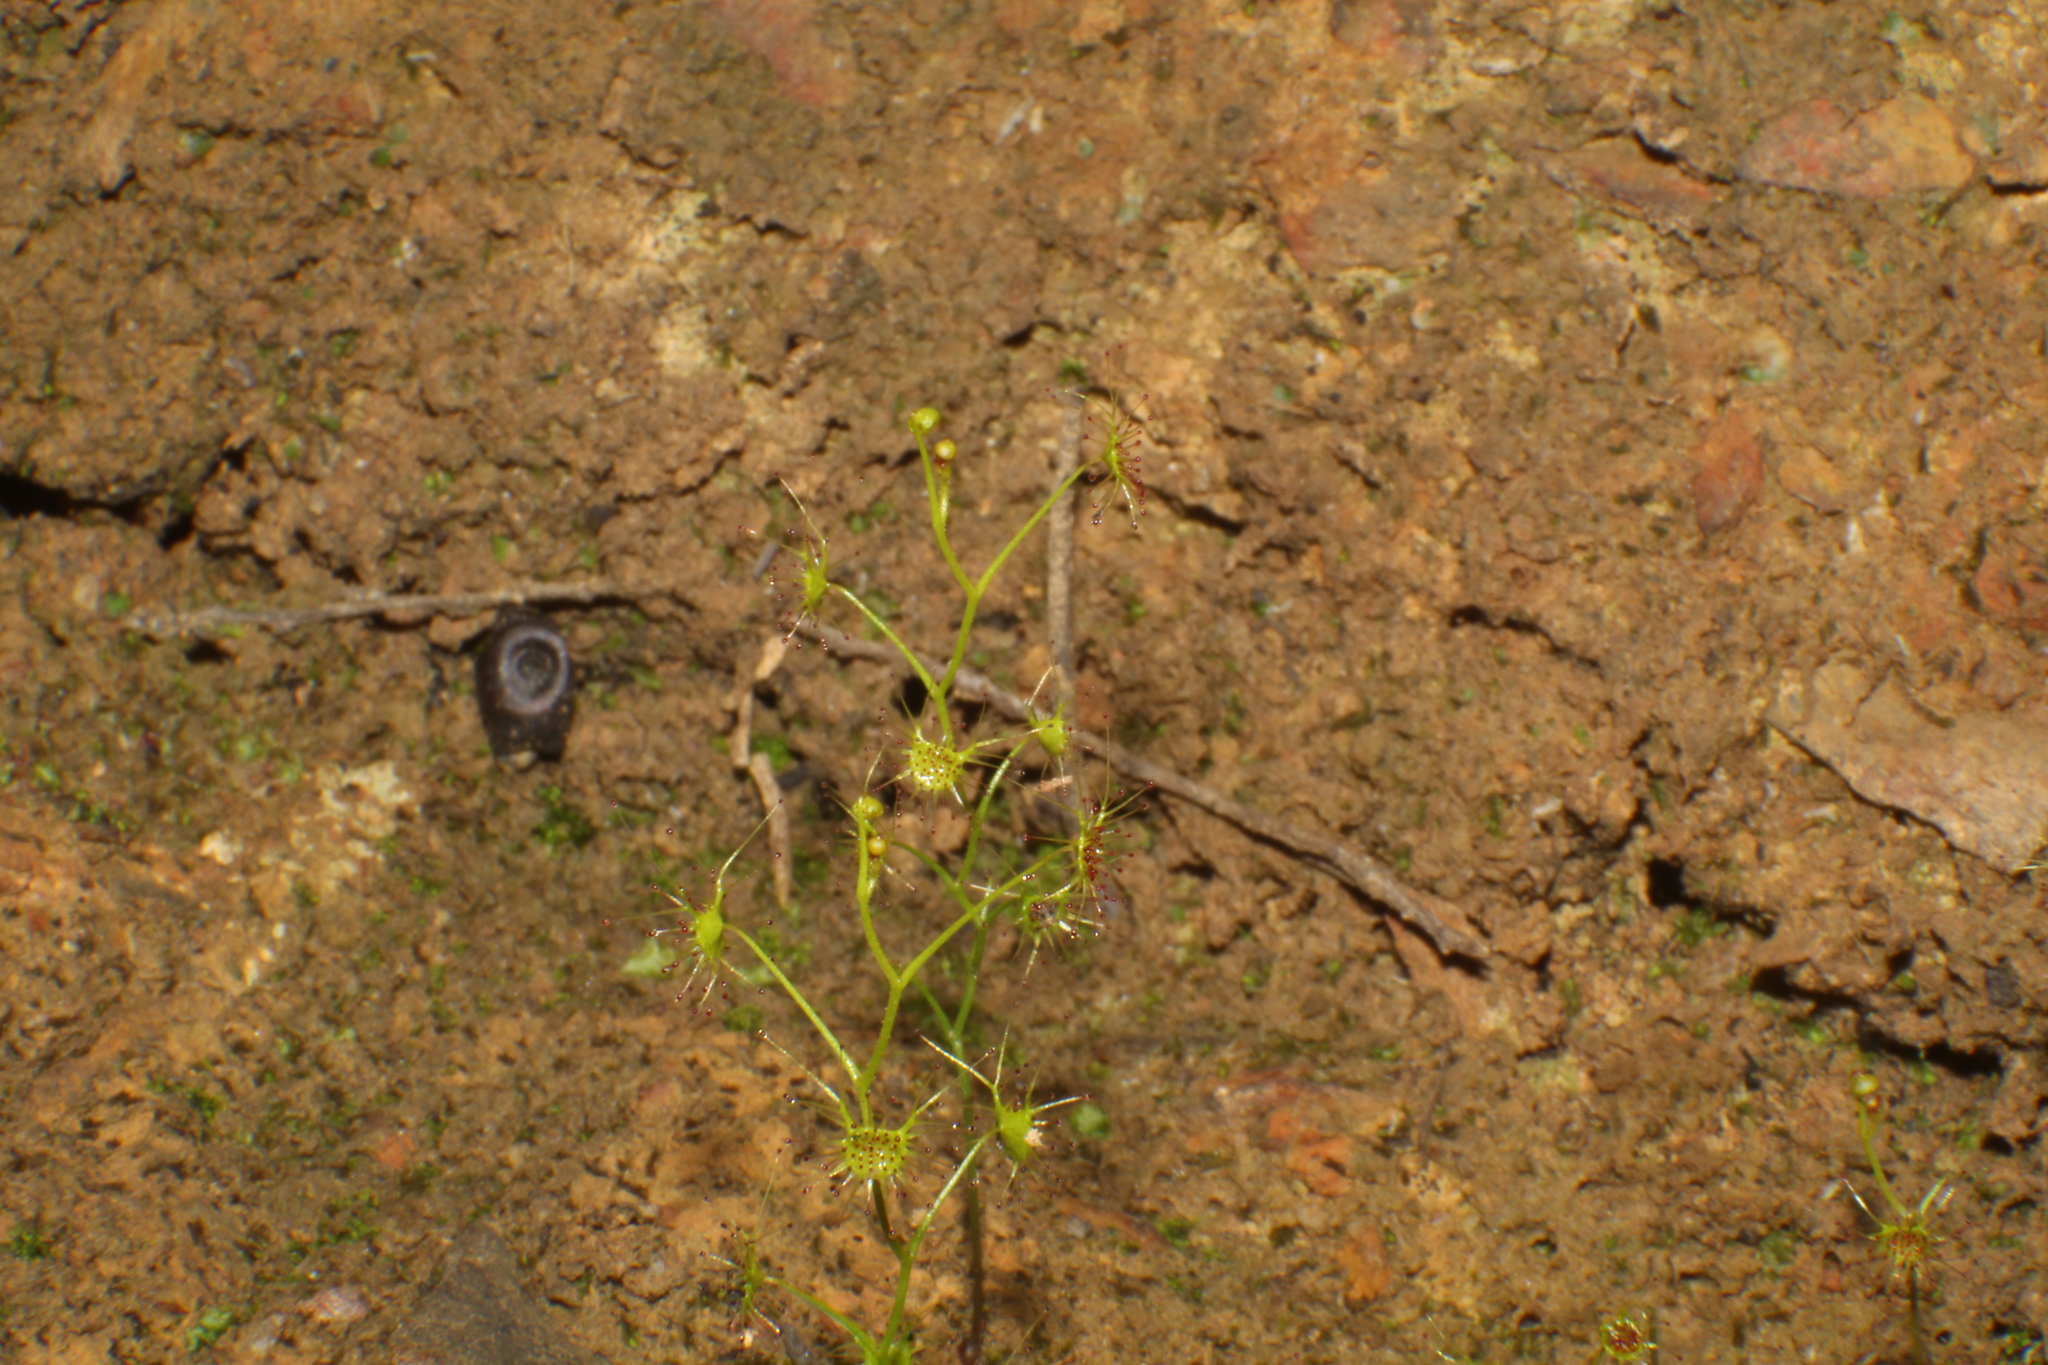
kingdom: Plantae
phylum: Tracheophyta
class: Magnoliopsida
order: Caryophyllales
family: Droseraceae
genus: Drosera
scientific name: Drosera modesta
